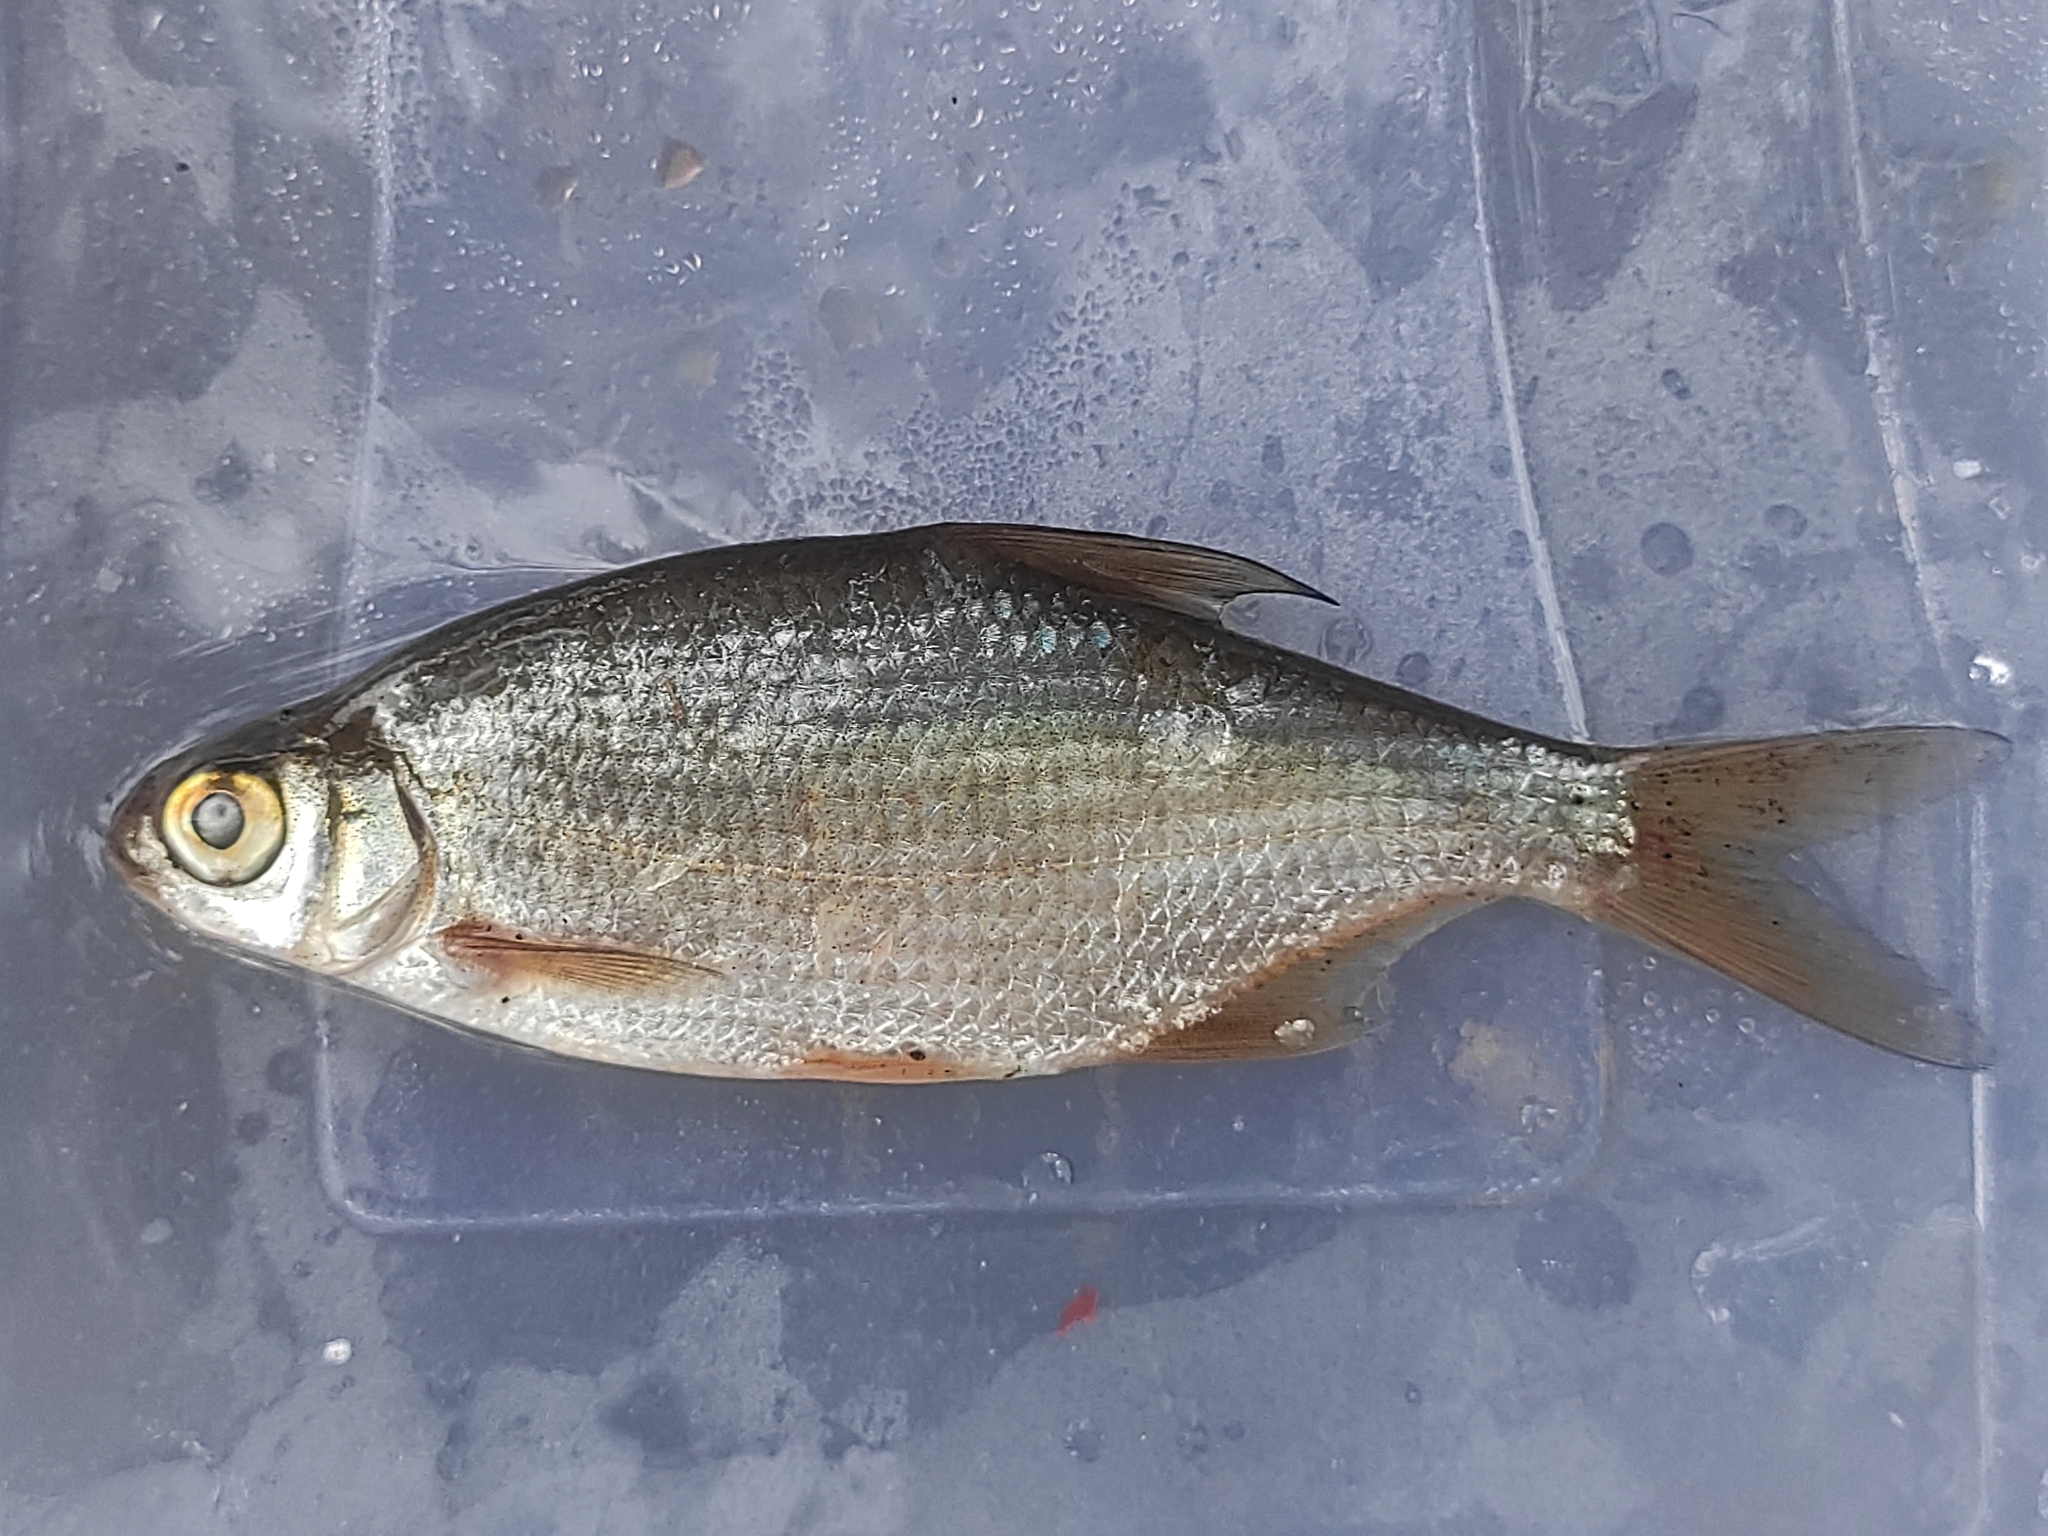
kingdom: Animalia
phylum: Chordata
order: Cypriniformes
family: Cyprinidae
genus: Blicca
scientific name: Blicca bjoerkna
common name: White bream
